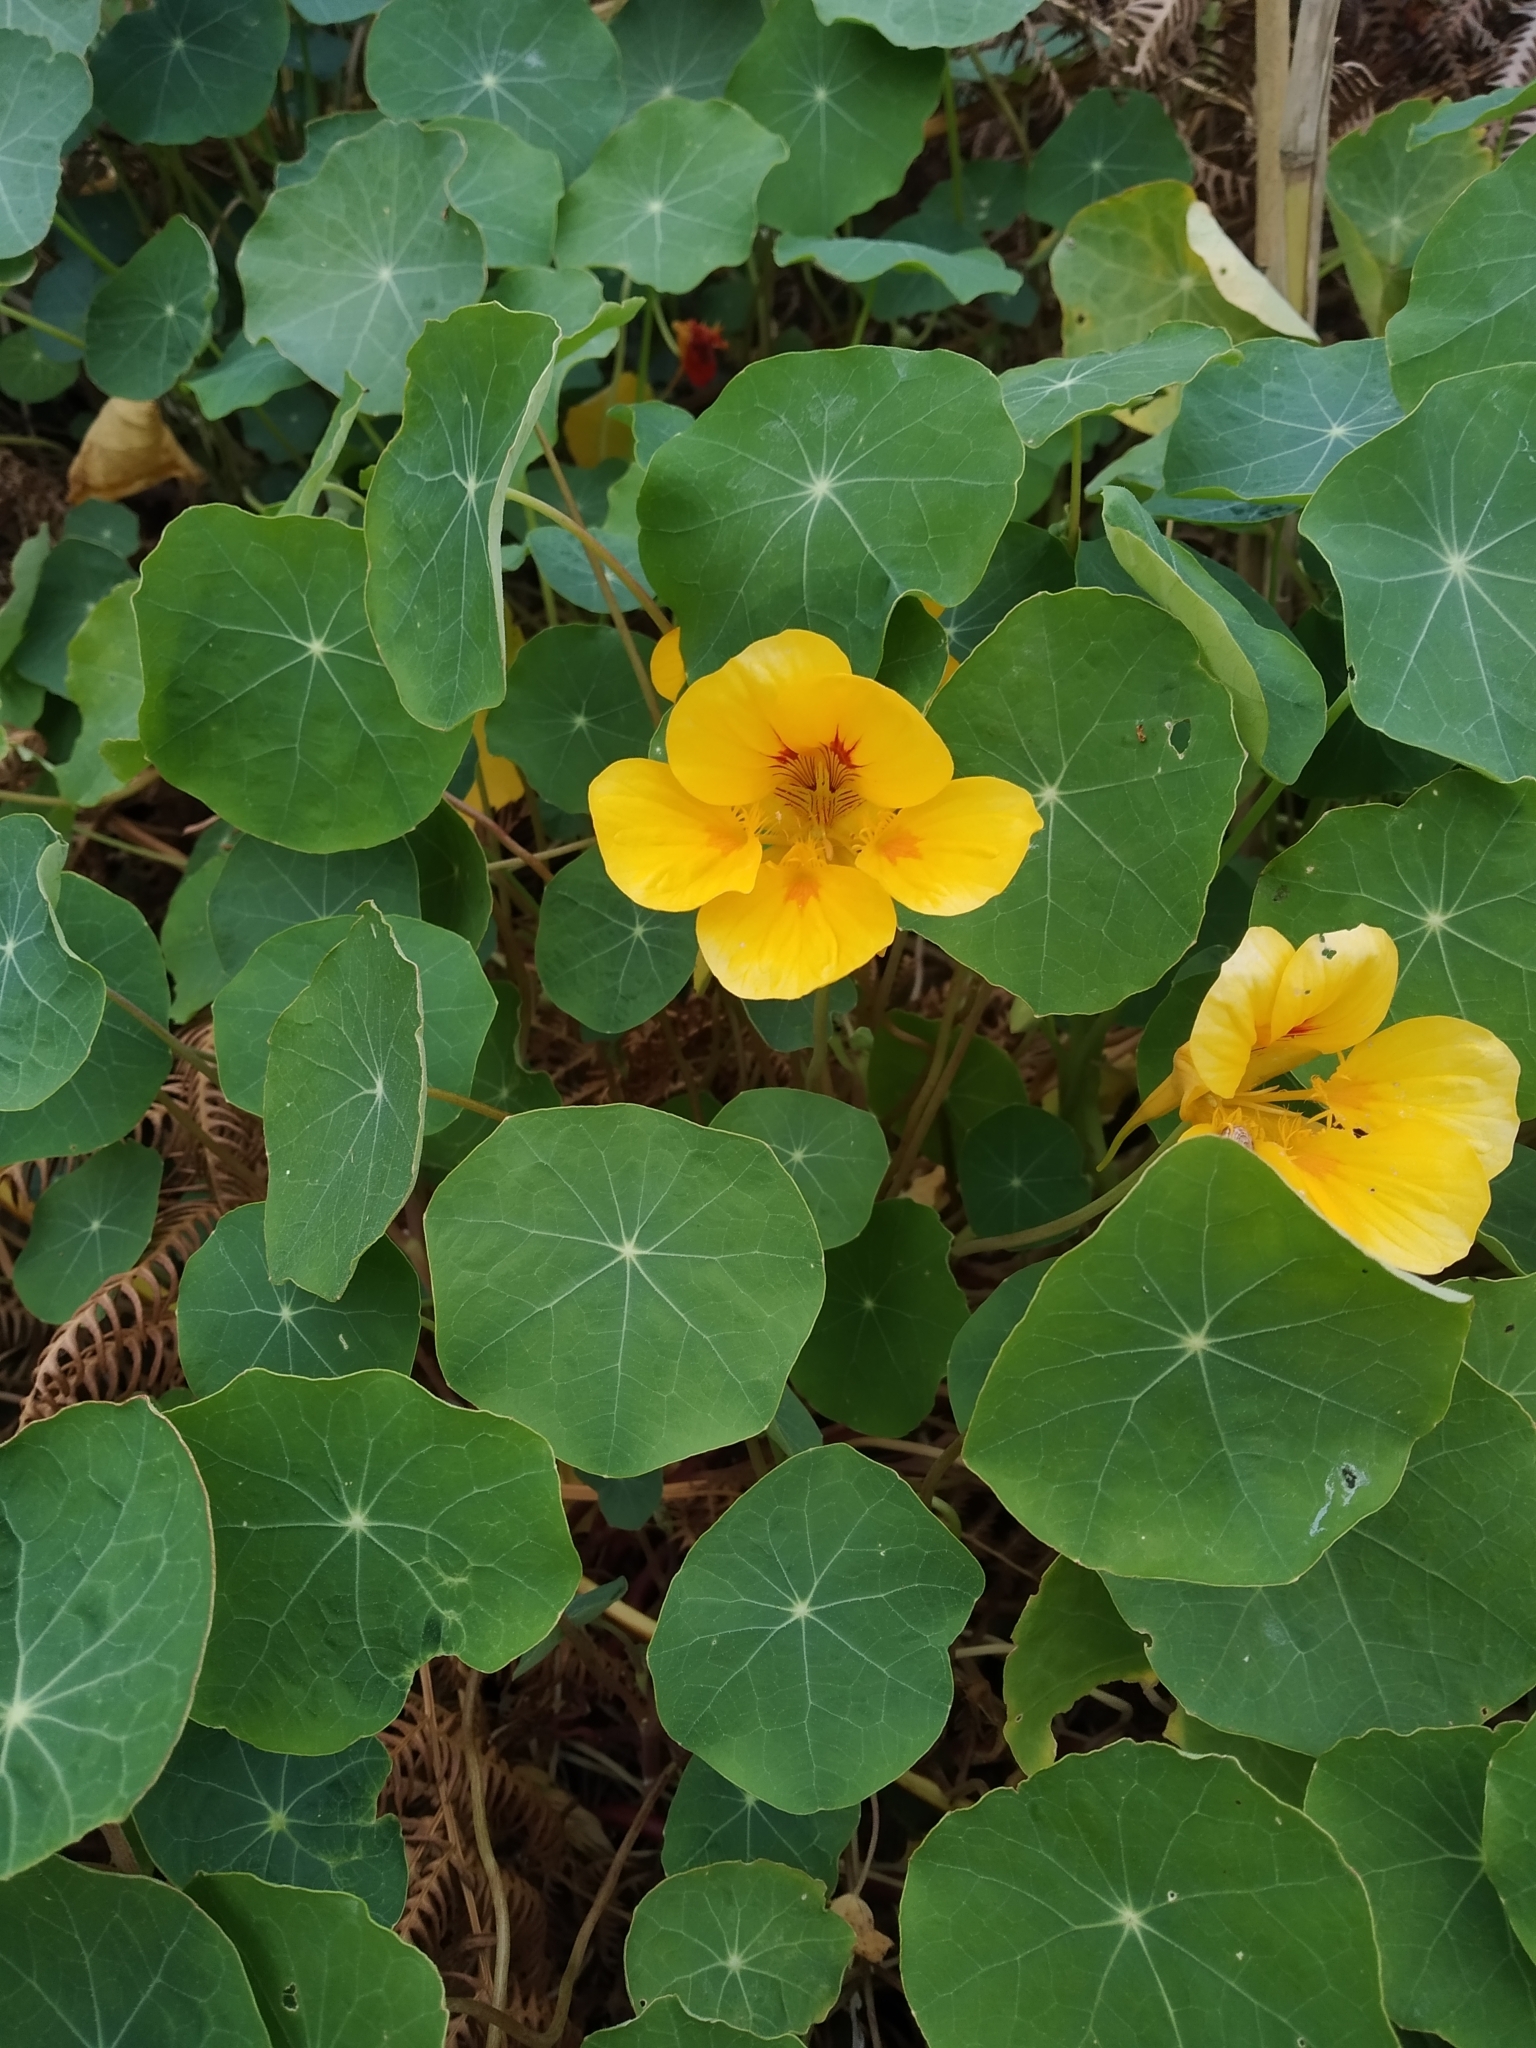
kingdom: Plantae
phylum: Tracheophyta
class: Magnoliopsida
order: Brassicales
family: Tropaeolaceae
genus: Tropaeolum
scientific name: Tropaeolum majus
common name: Nasturtium
